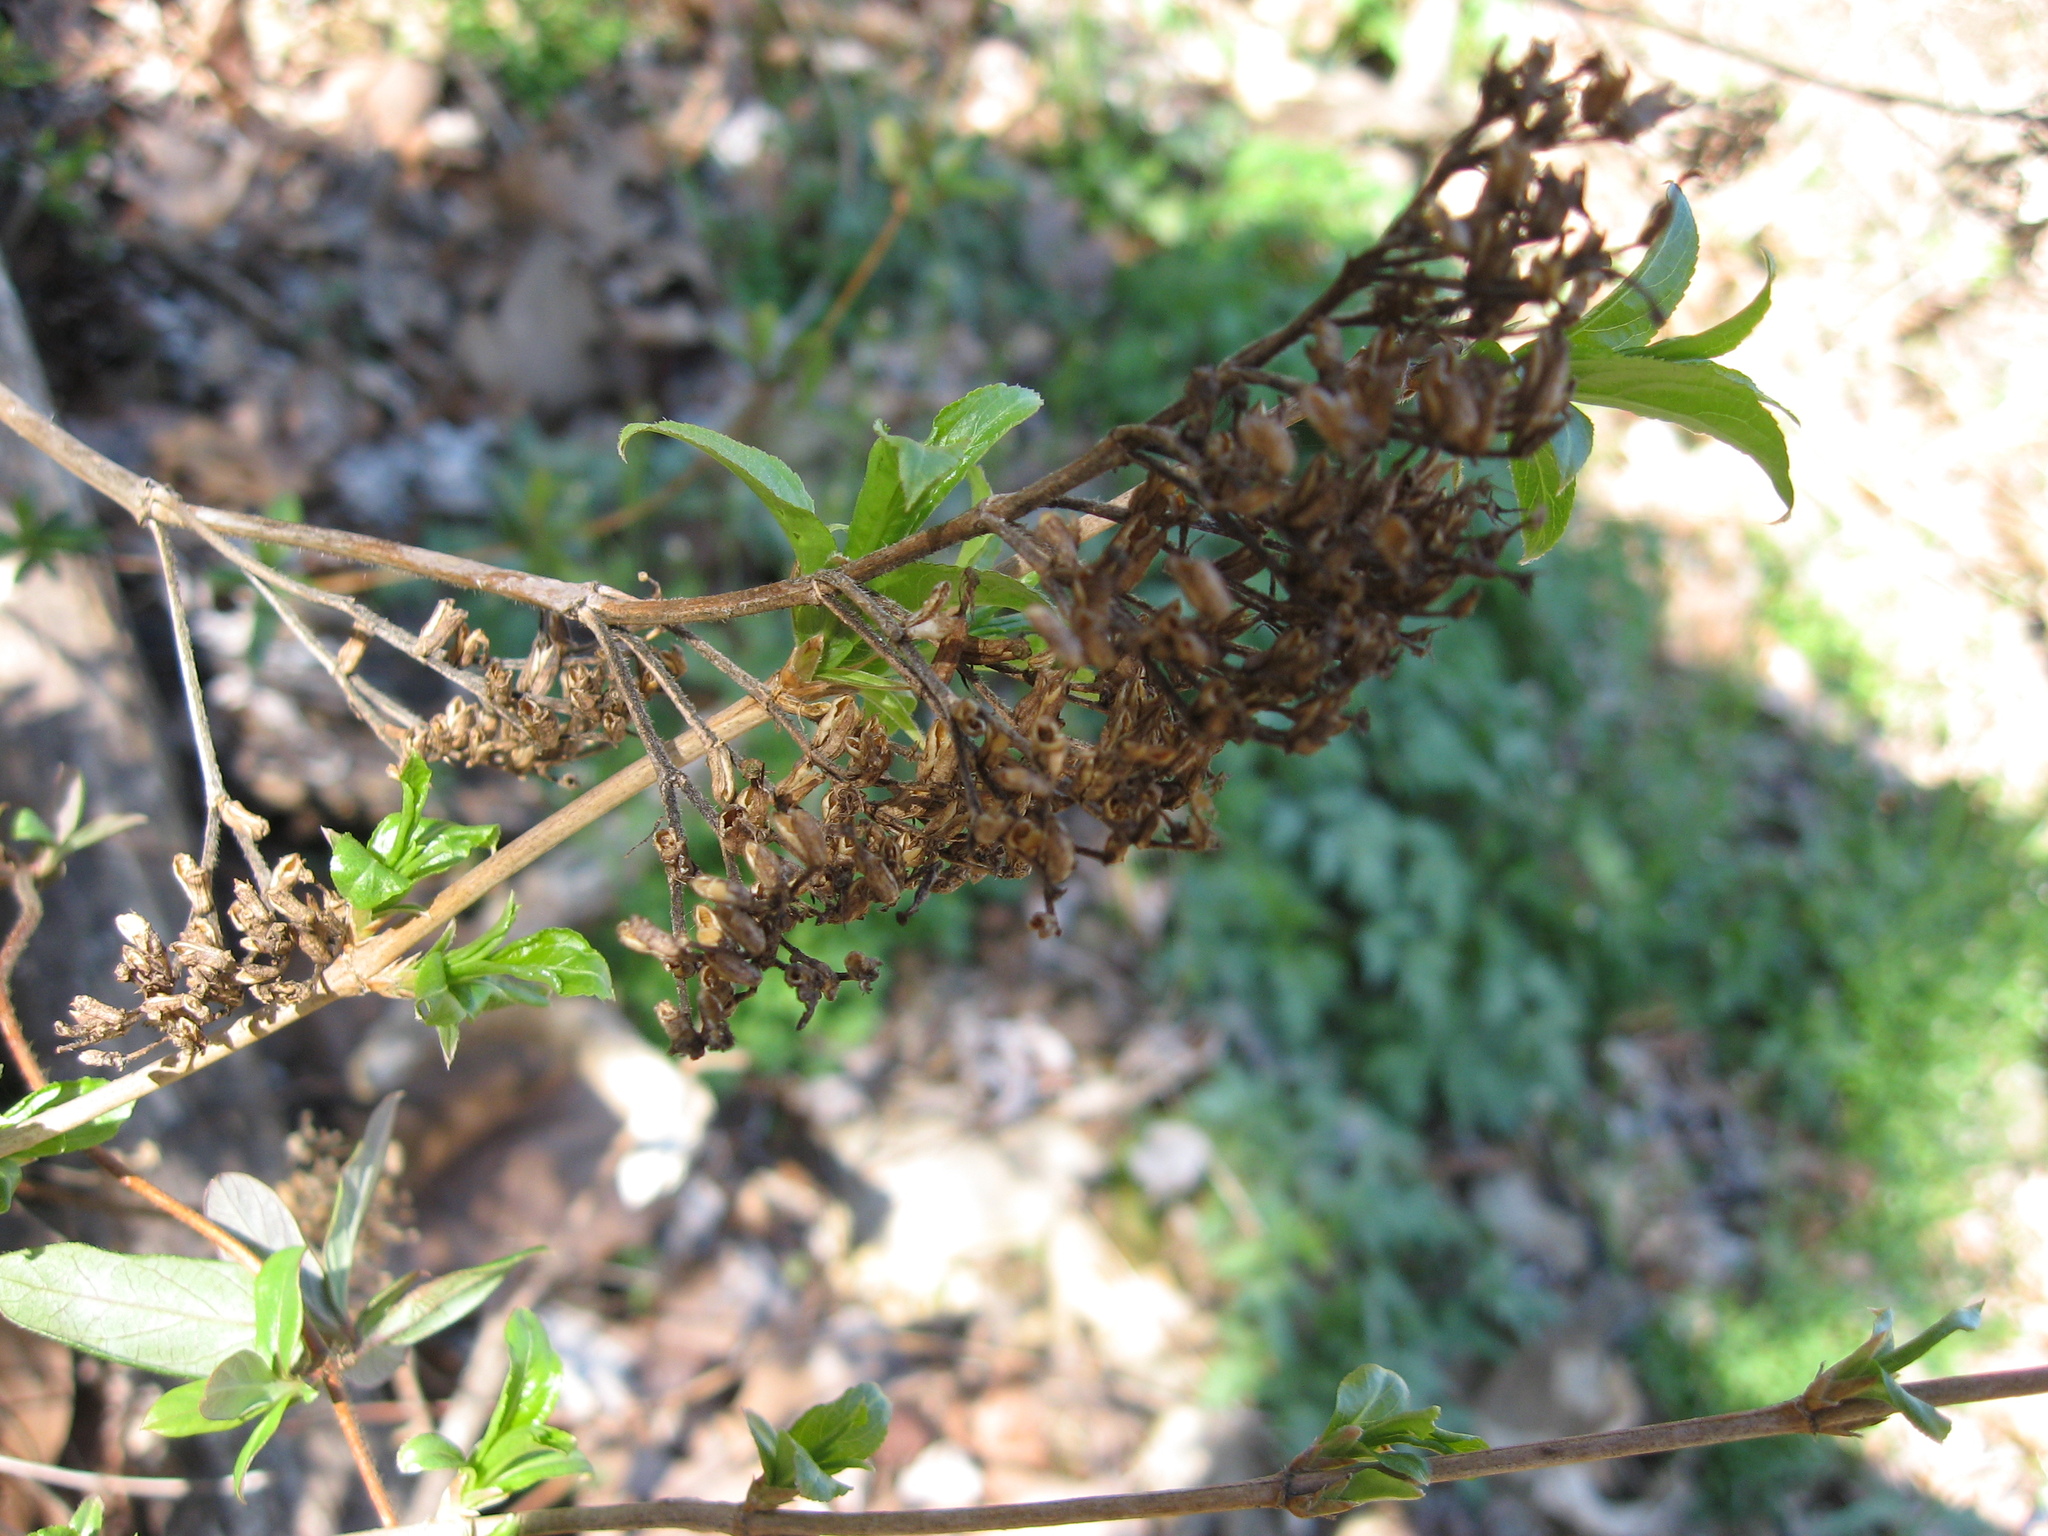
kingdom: Plantae
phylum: Tracheophyta
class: Magnoliopsida
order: Dipsacales
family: Caprifoliaceae
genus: Diervilla
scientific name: Diervilla rivularis
